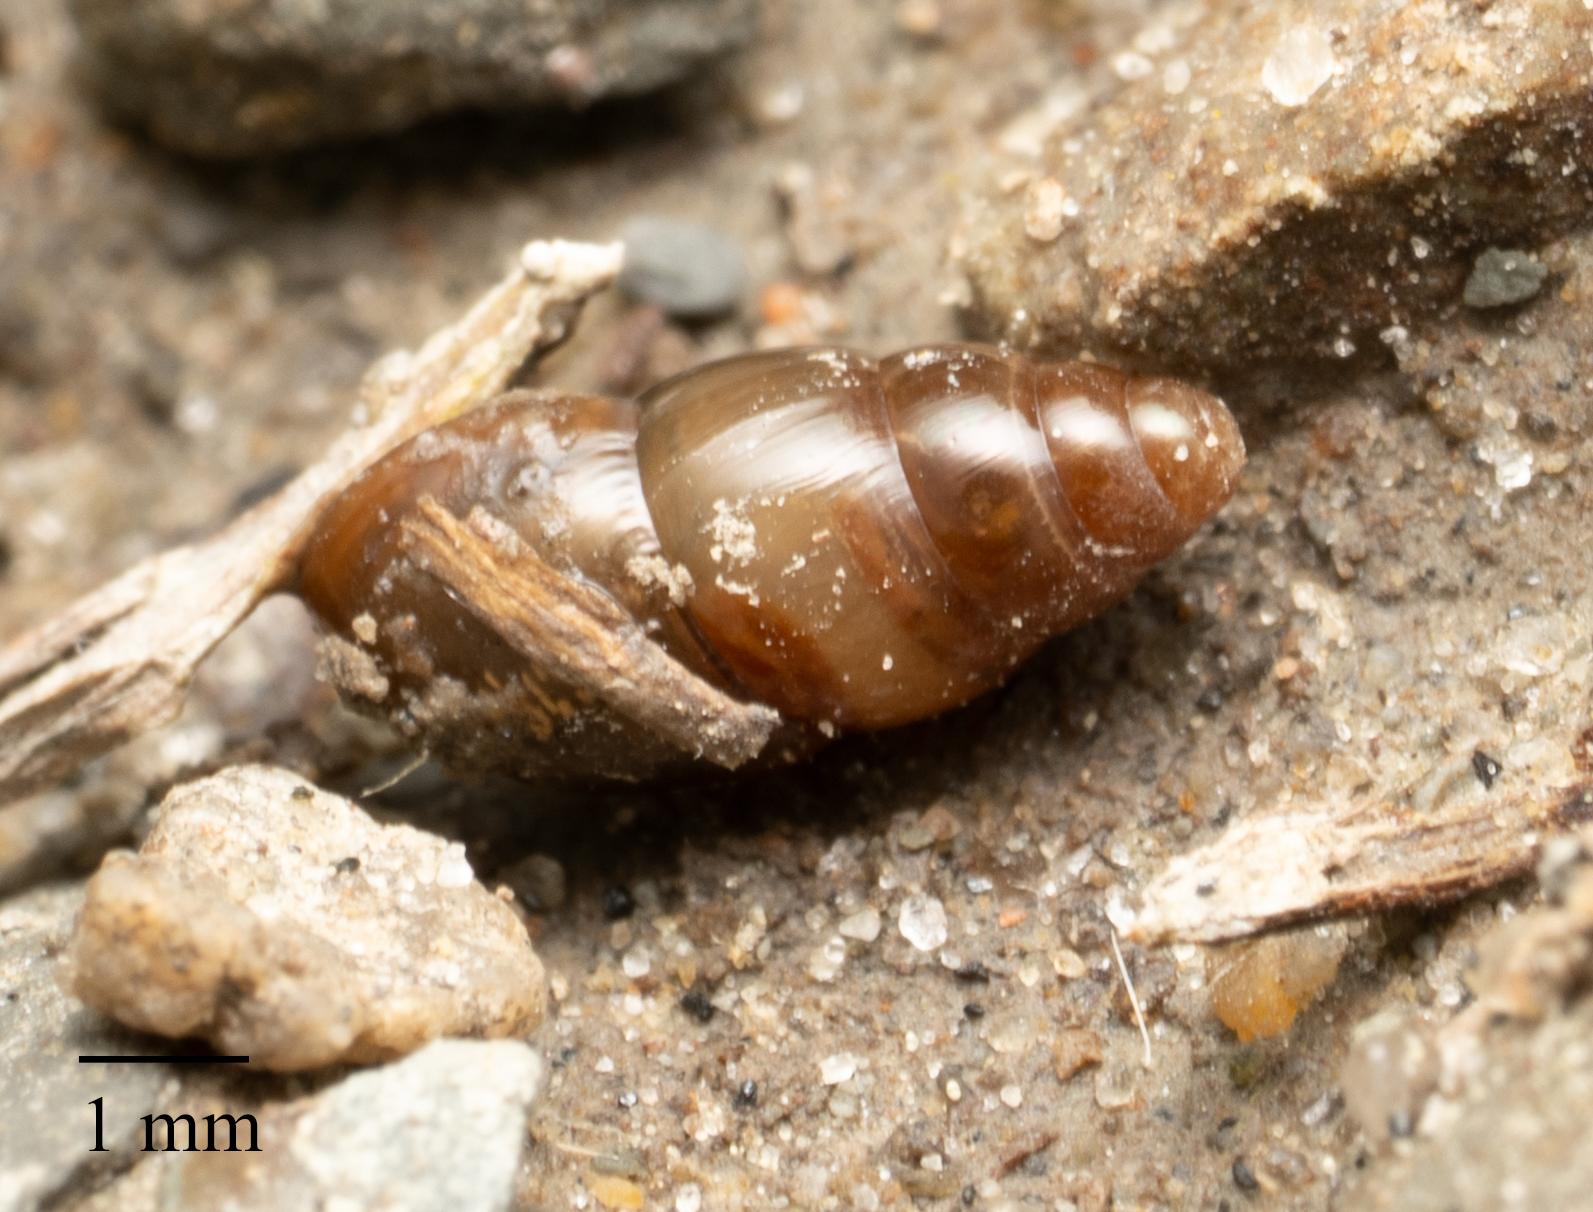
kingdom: Animalia
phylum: Mollusca
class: Gastropoda
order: Stylommatophora
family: Cochlicopidae
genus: Cochlicopa
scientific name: Cochlicopa lubrica
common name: Glossy pillar snail
